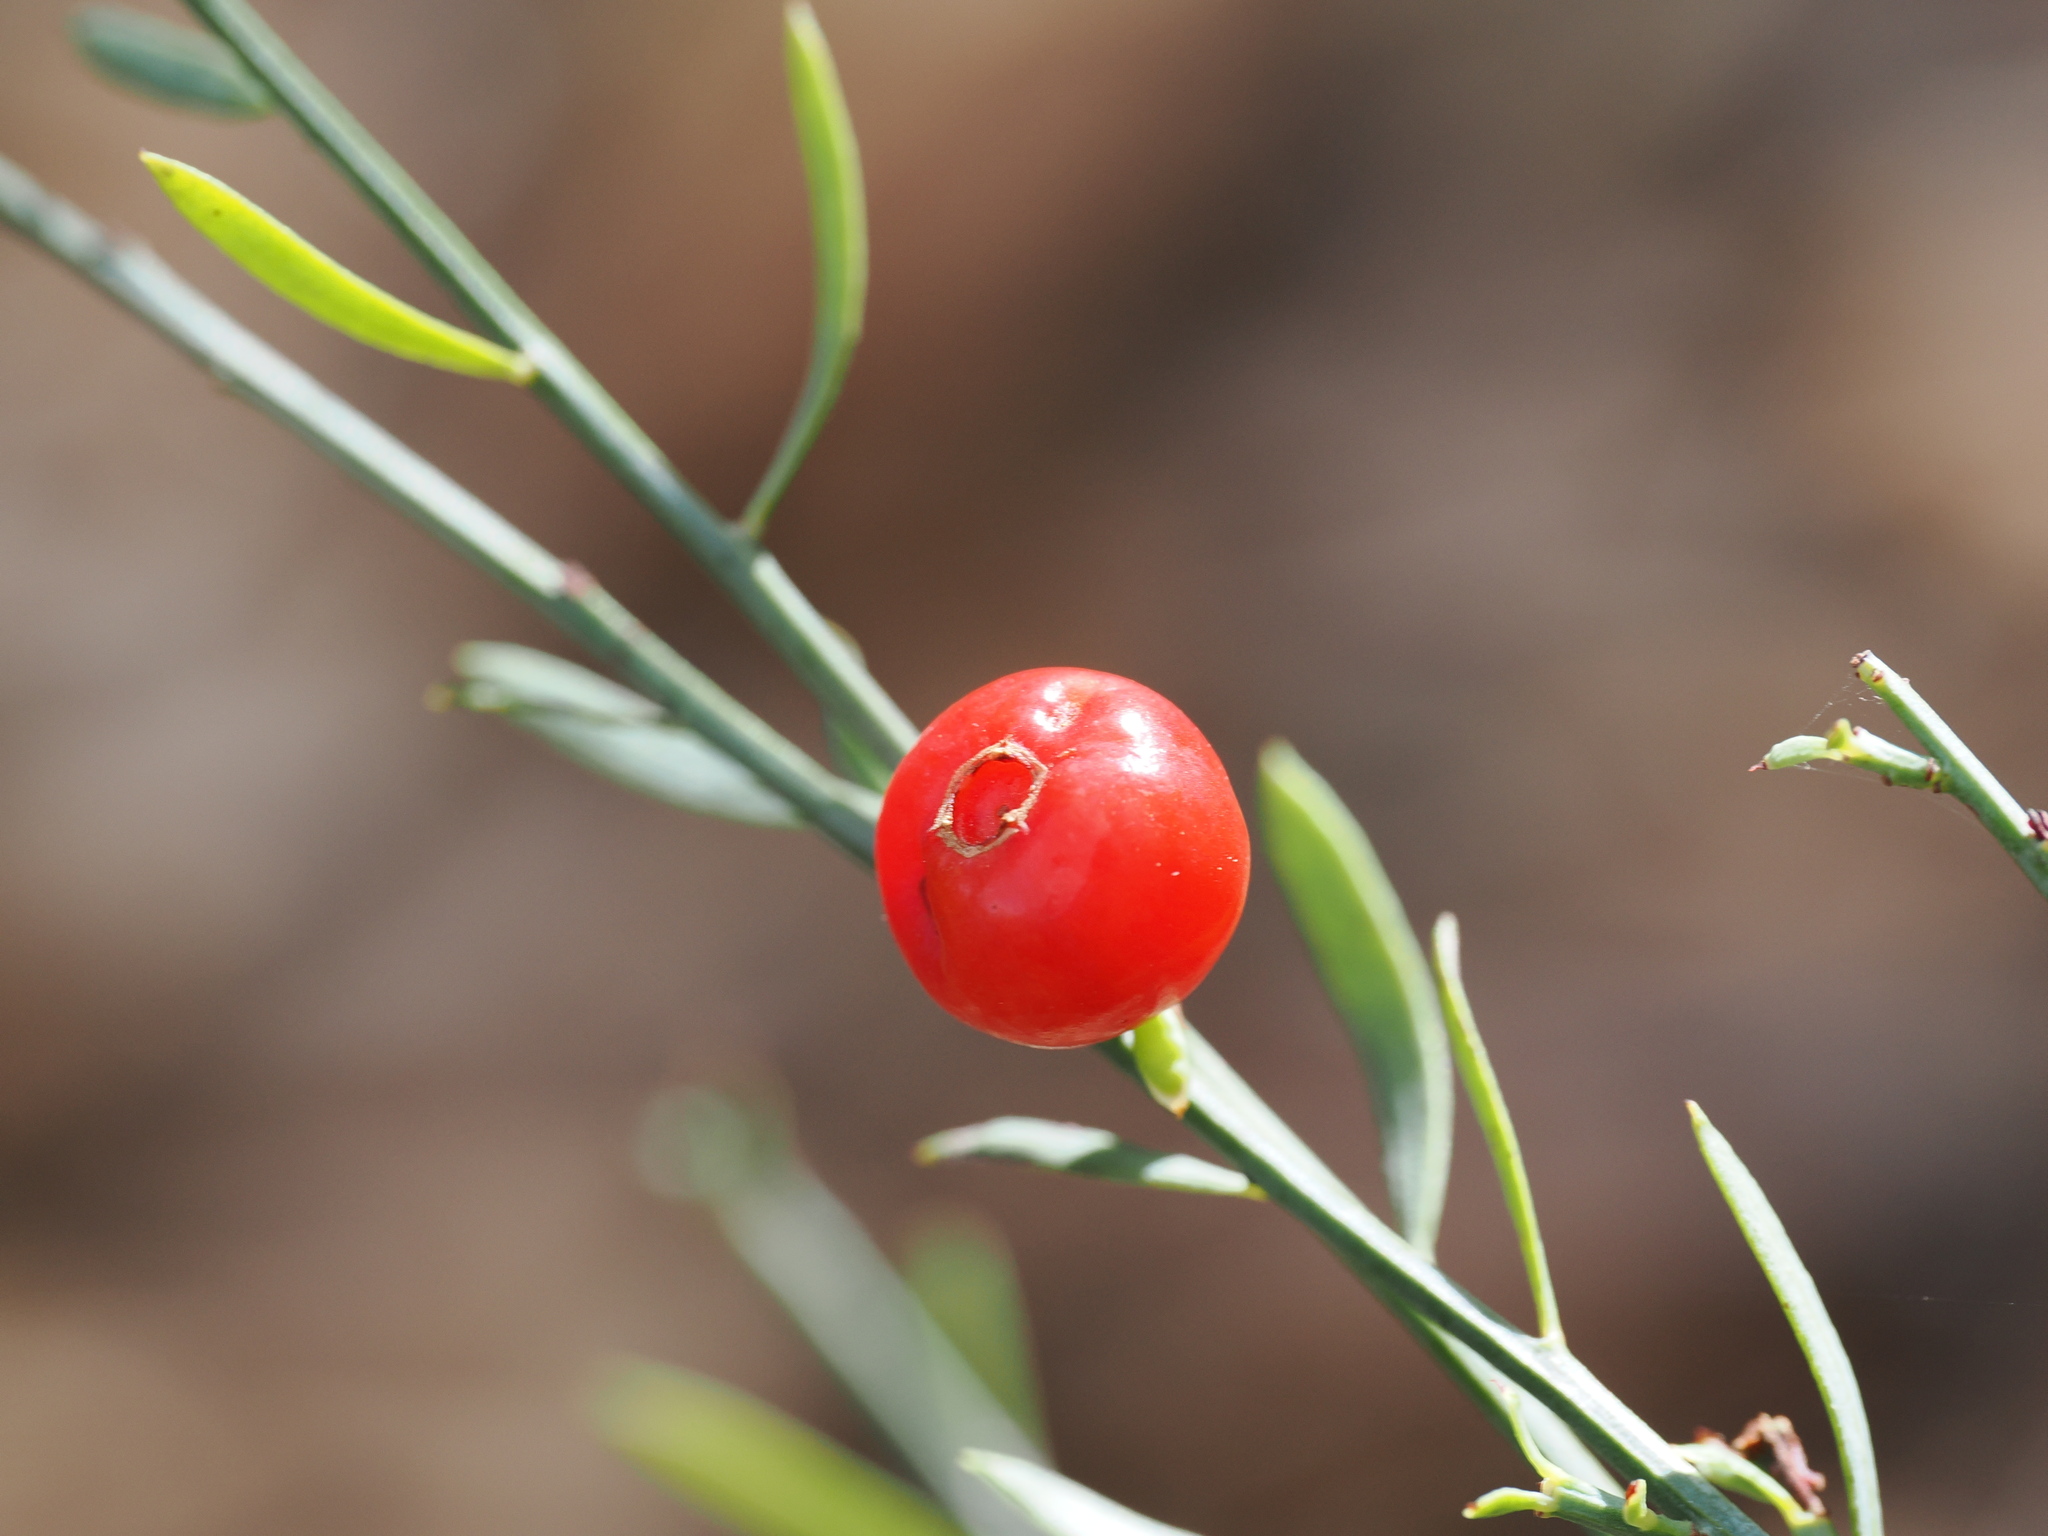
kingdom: Plantae
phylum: Tracheophyta
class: Magnoliopsida
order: Santalales
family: Santalaceae
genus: Osyris
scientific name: Osyris alba
